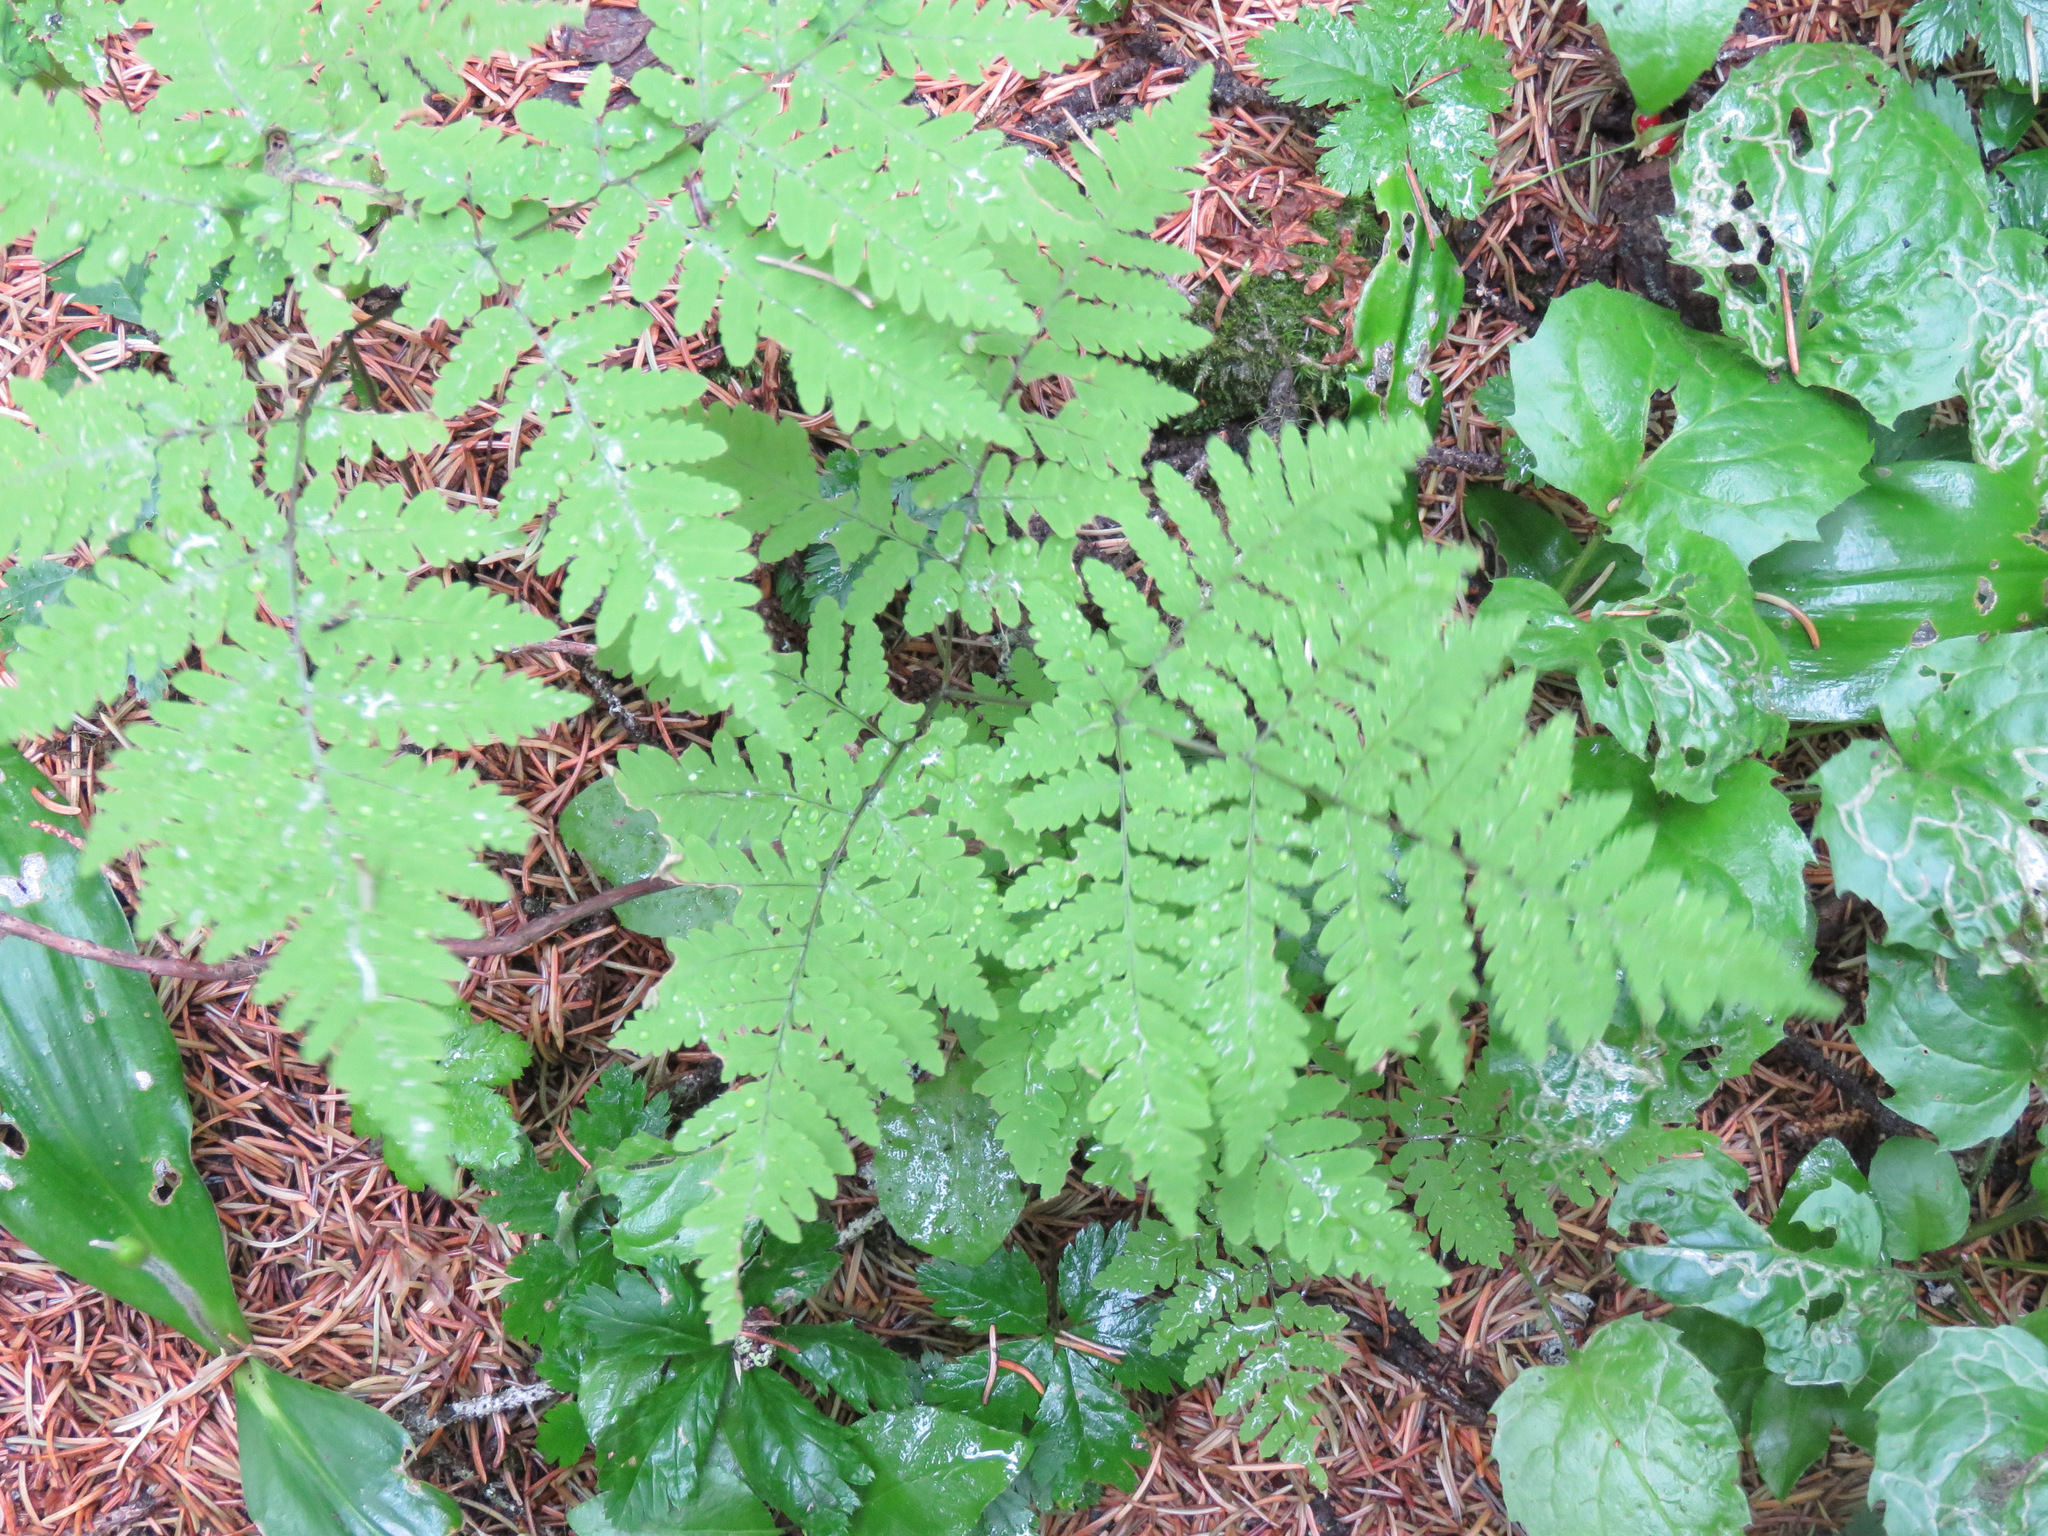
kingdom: Plantae
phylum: Tracheophyta
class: Polypodiopsida
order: Polypodiales
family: Cystopteridaceae
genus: Gymnocarpium
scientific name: Gymnocarpium dryopteris
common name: Oak fern
